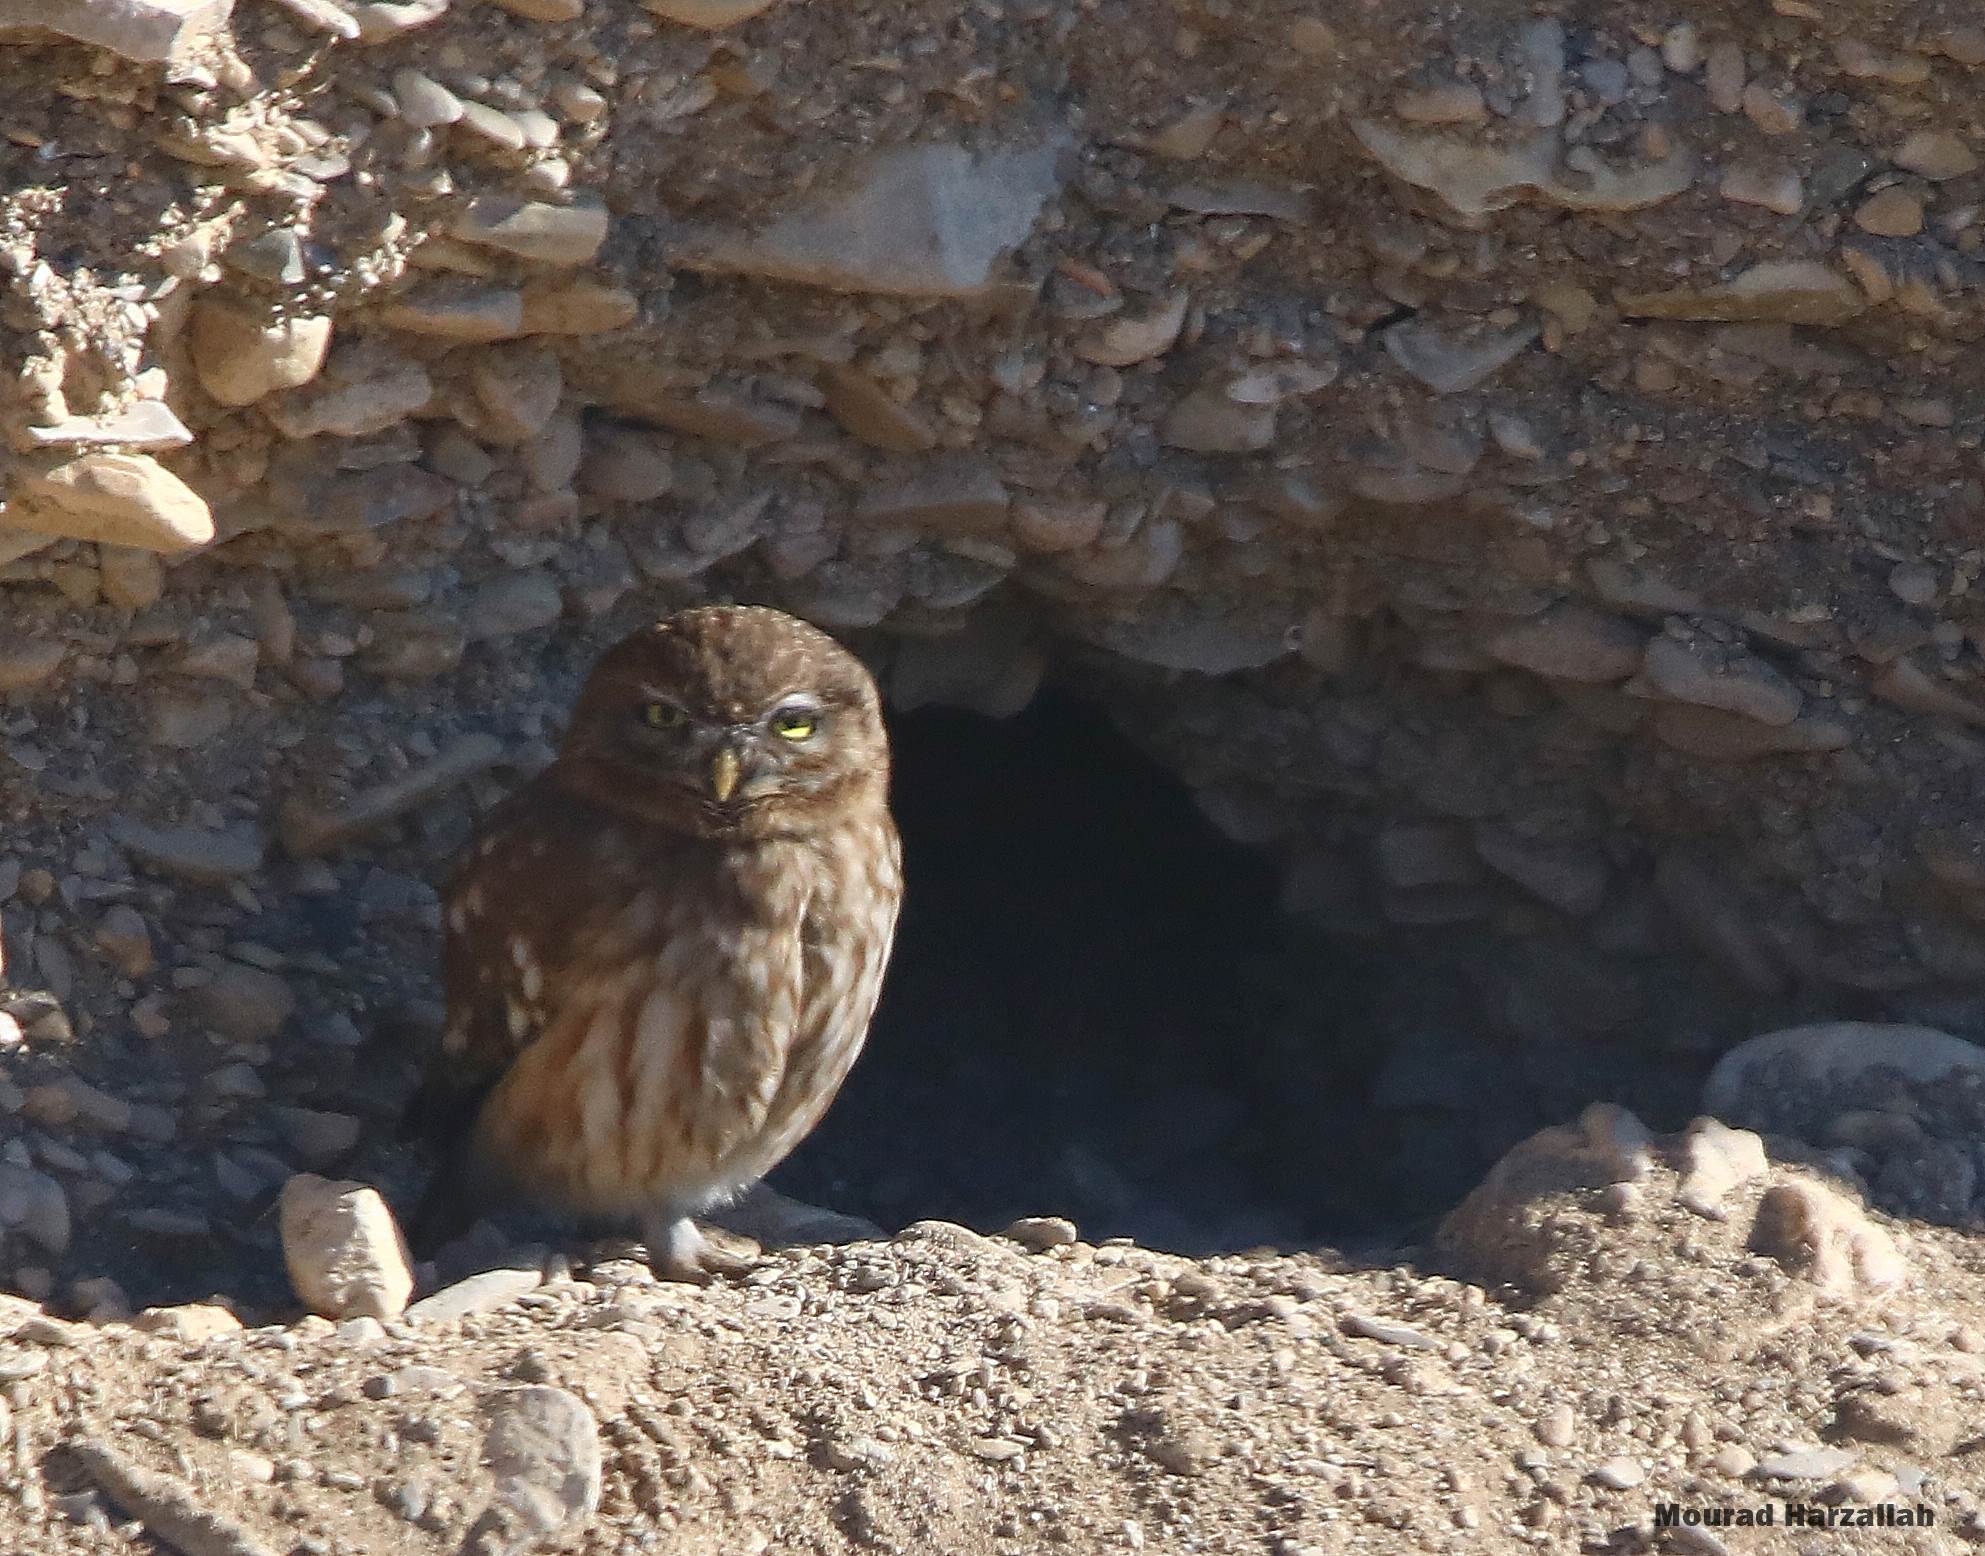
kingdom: Animalia
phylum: Chordata
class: Aves
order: Strigiformes
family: Strigidae
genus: Athene
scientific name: Athene noctua
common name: Little owl
